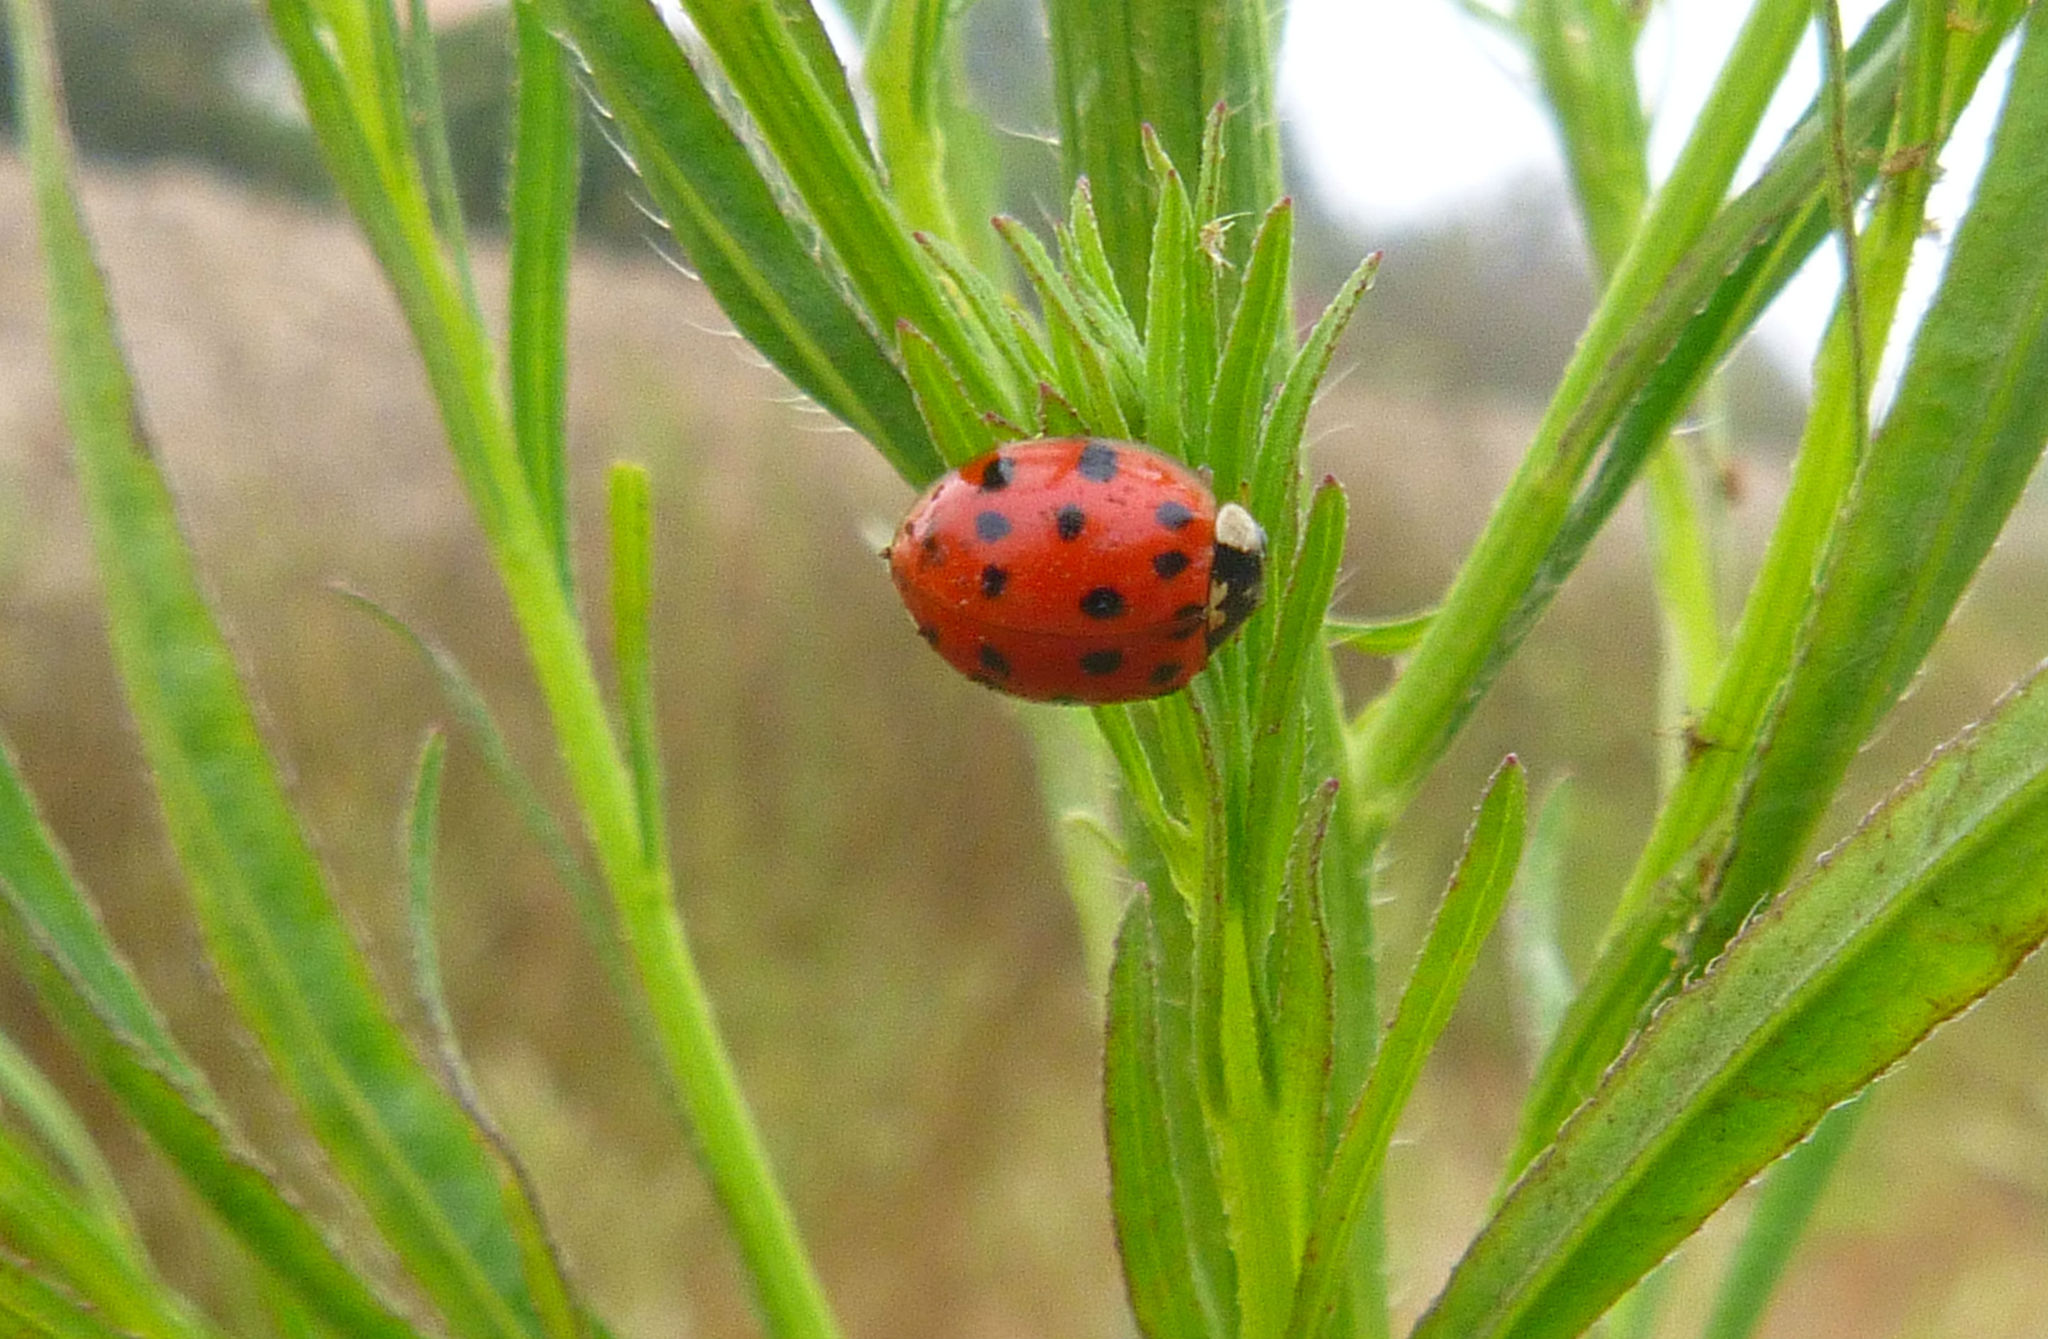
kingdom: Animalia
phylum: Arthropoda
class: Insecta
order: Coleoptera
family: Coccinellidae
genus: Harmonia
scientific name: Harmonia axyridis
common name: Harlequin ladybird
